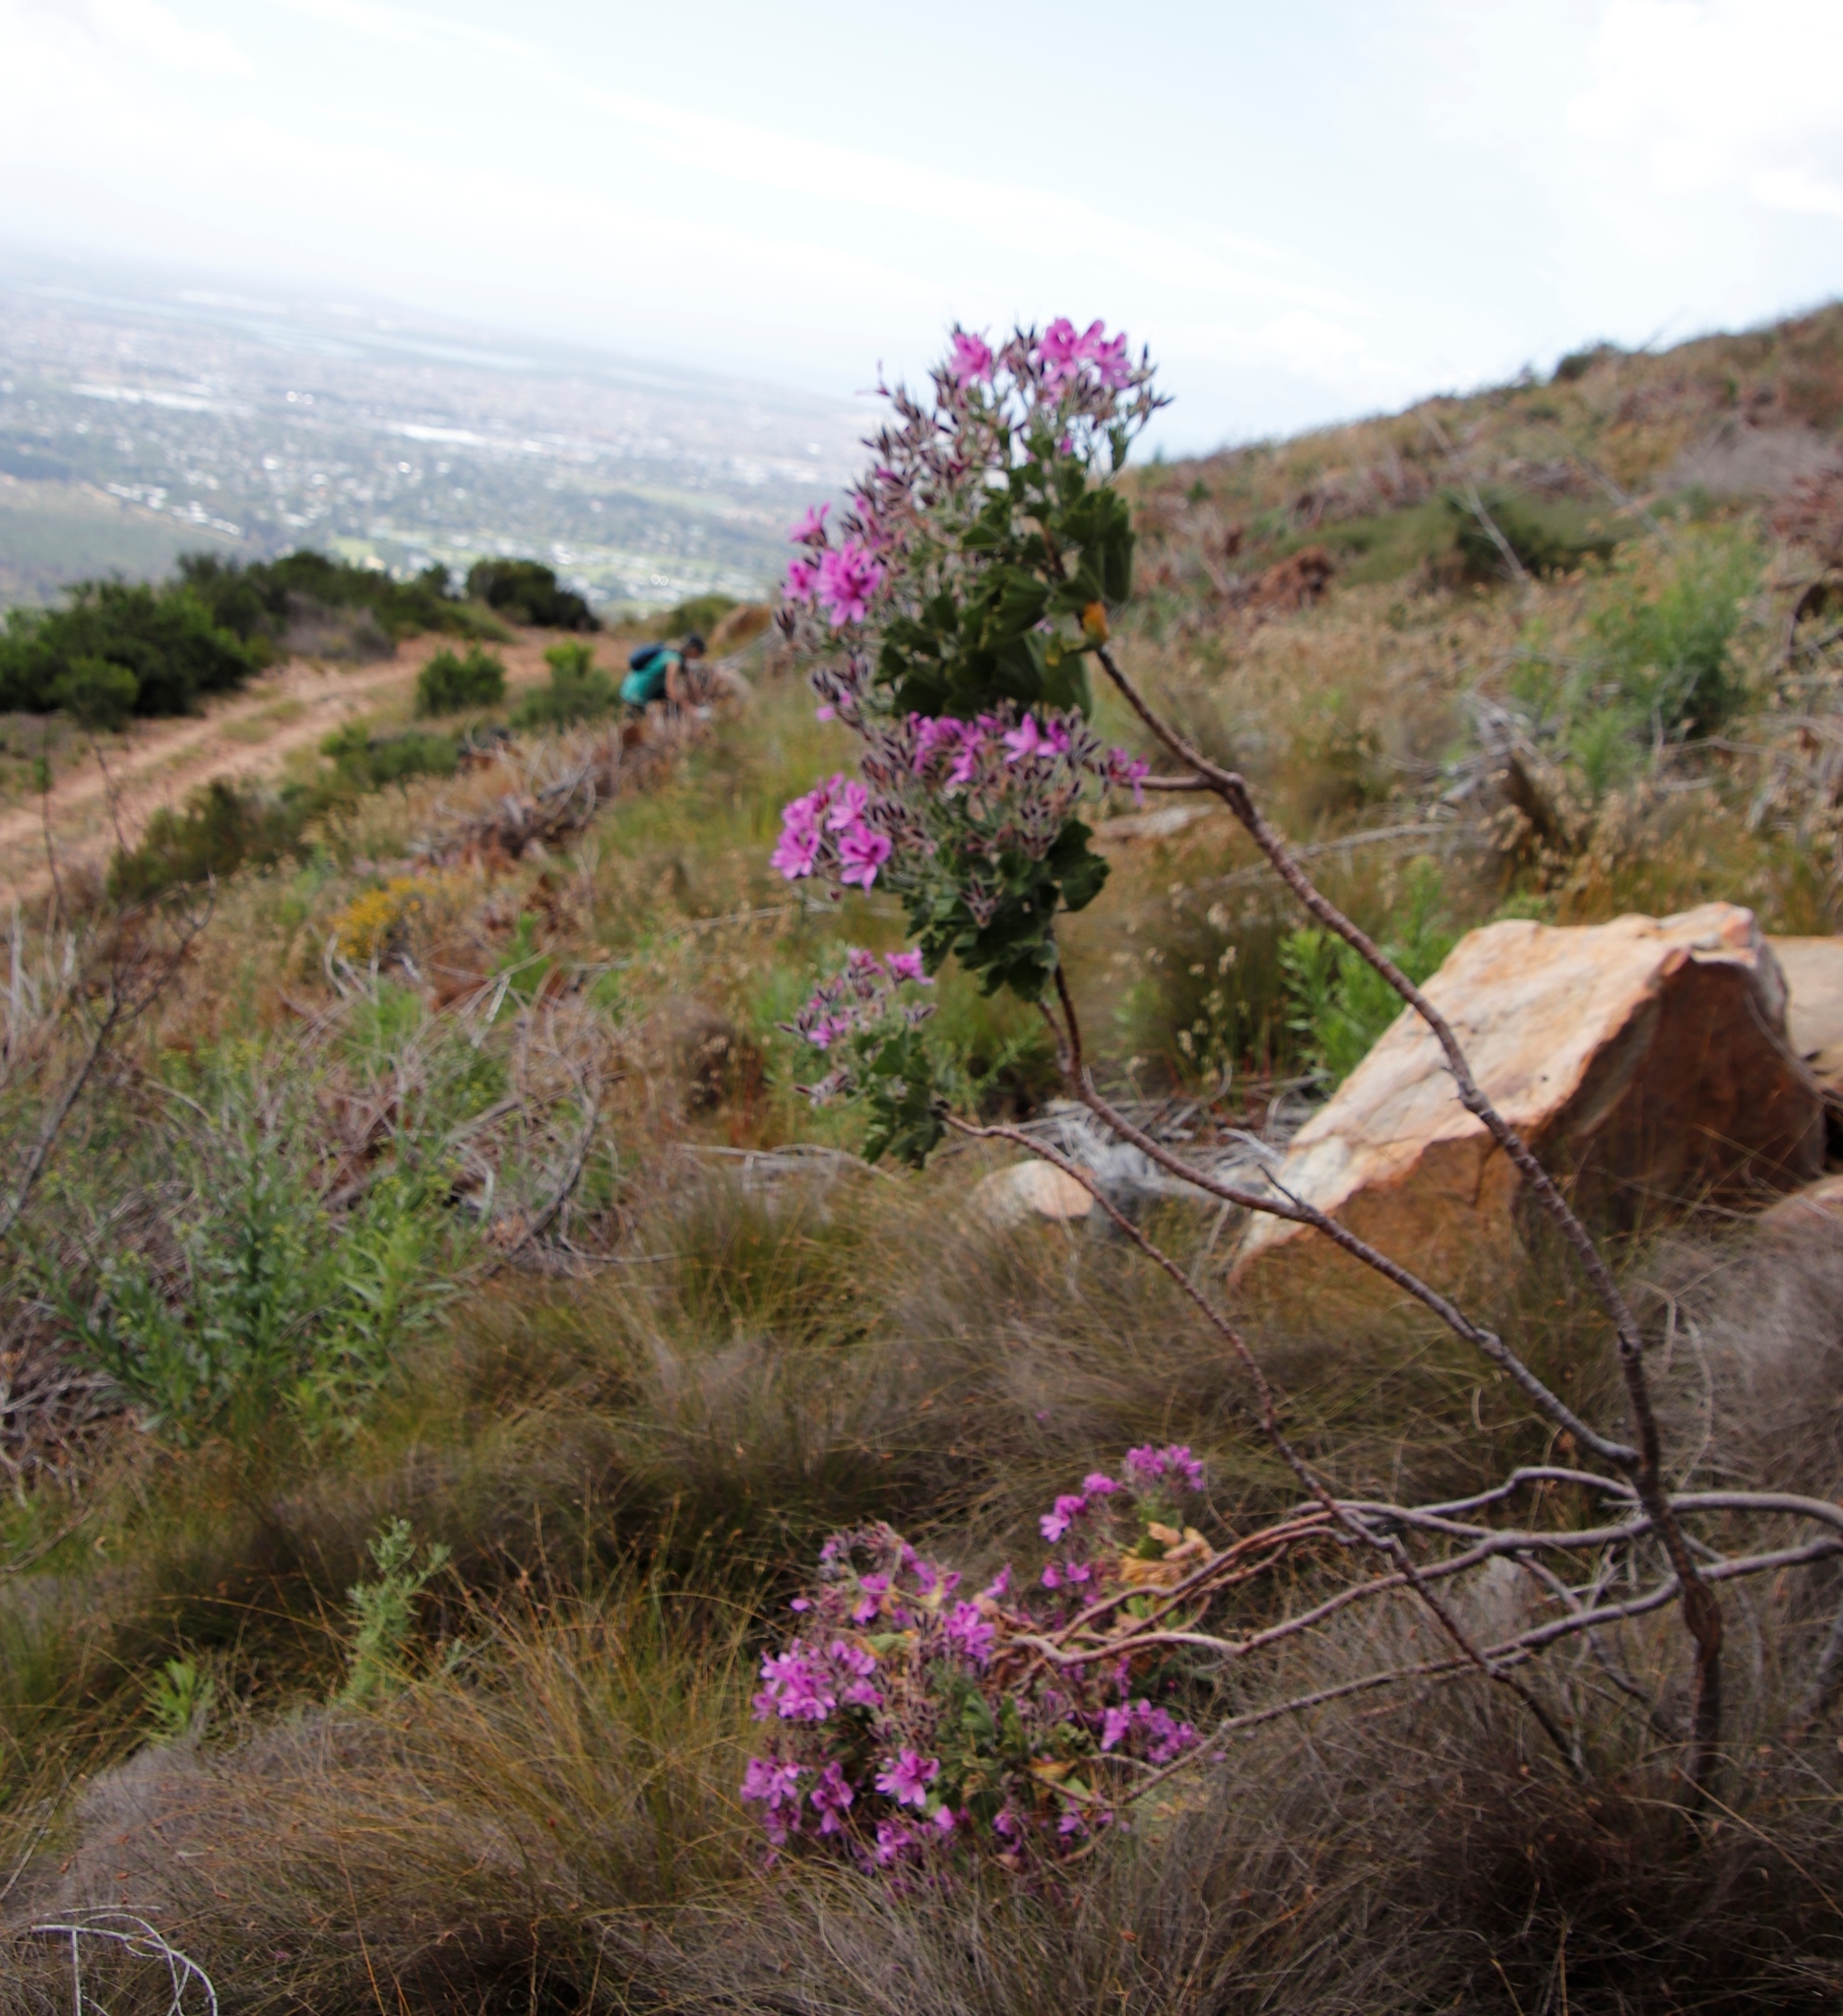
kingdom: Plantae
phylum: Tracheophyta
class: Magnoliopsida
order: Geraniales
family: Geraniaceae
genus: Pelargonium
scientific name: Pelargonium cucullatum
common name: Tree pelargonium
